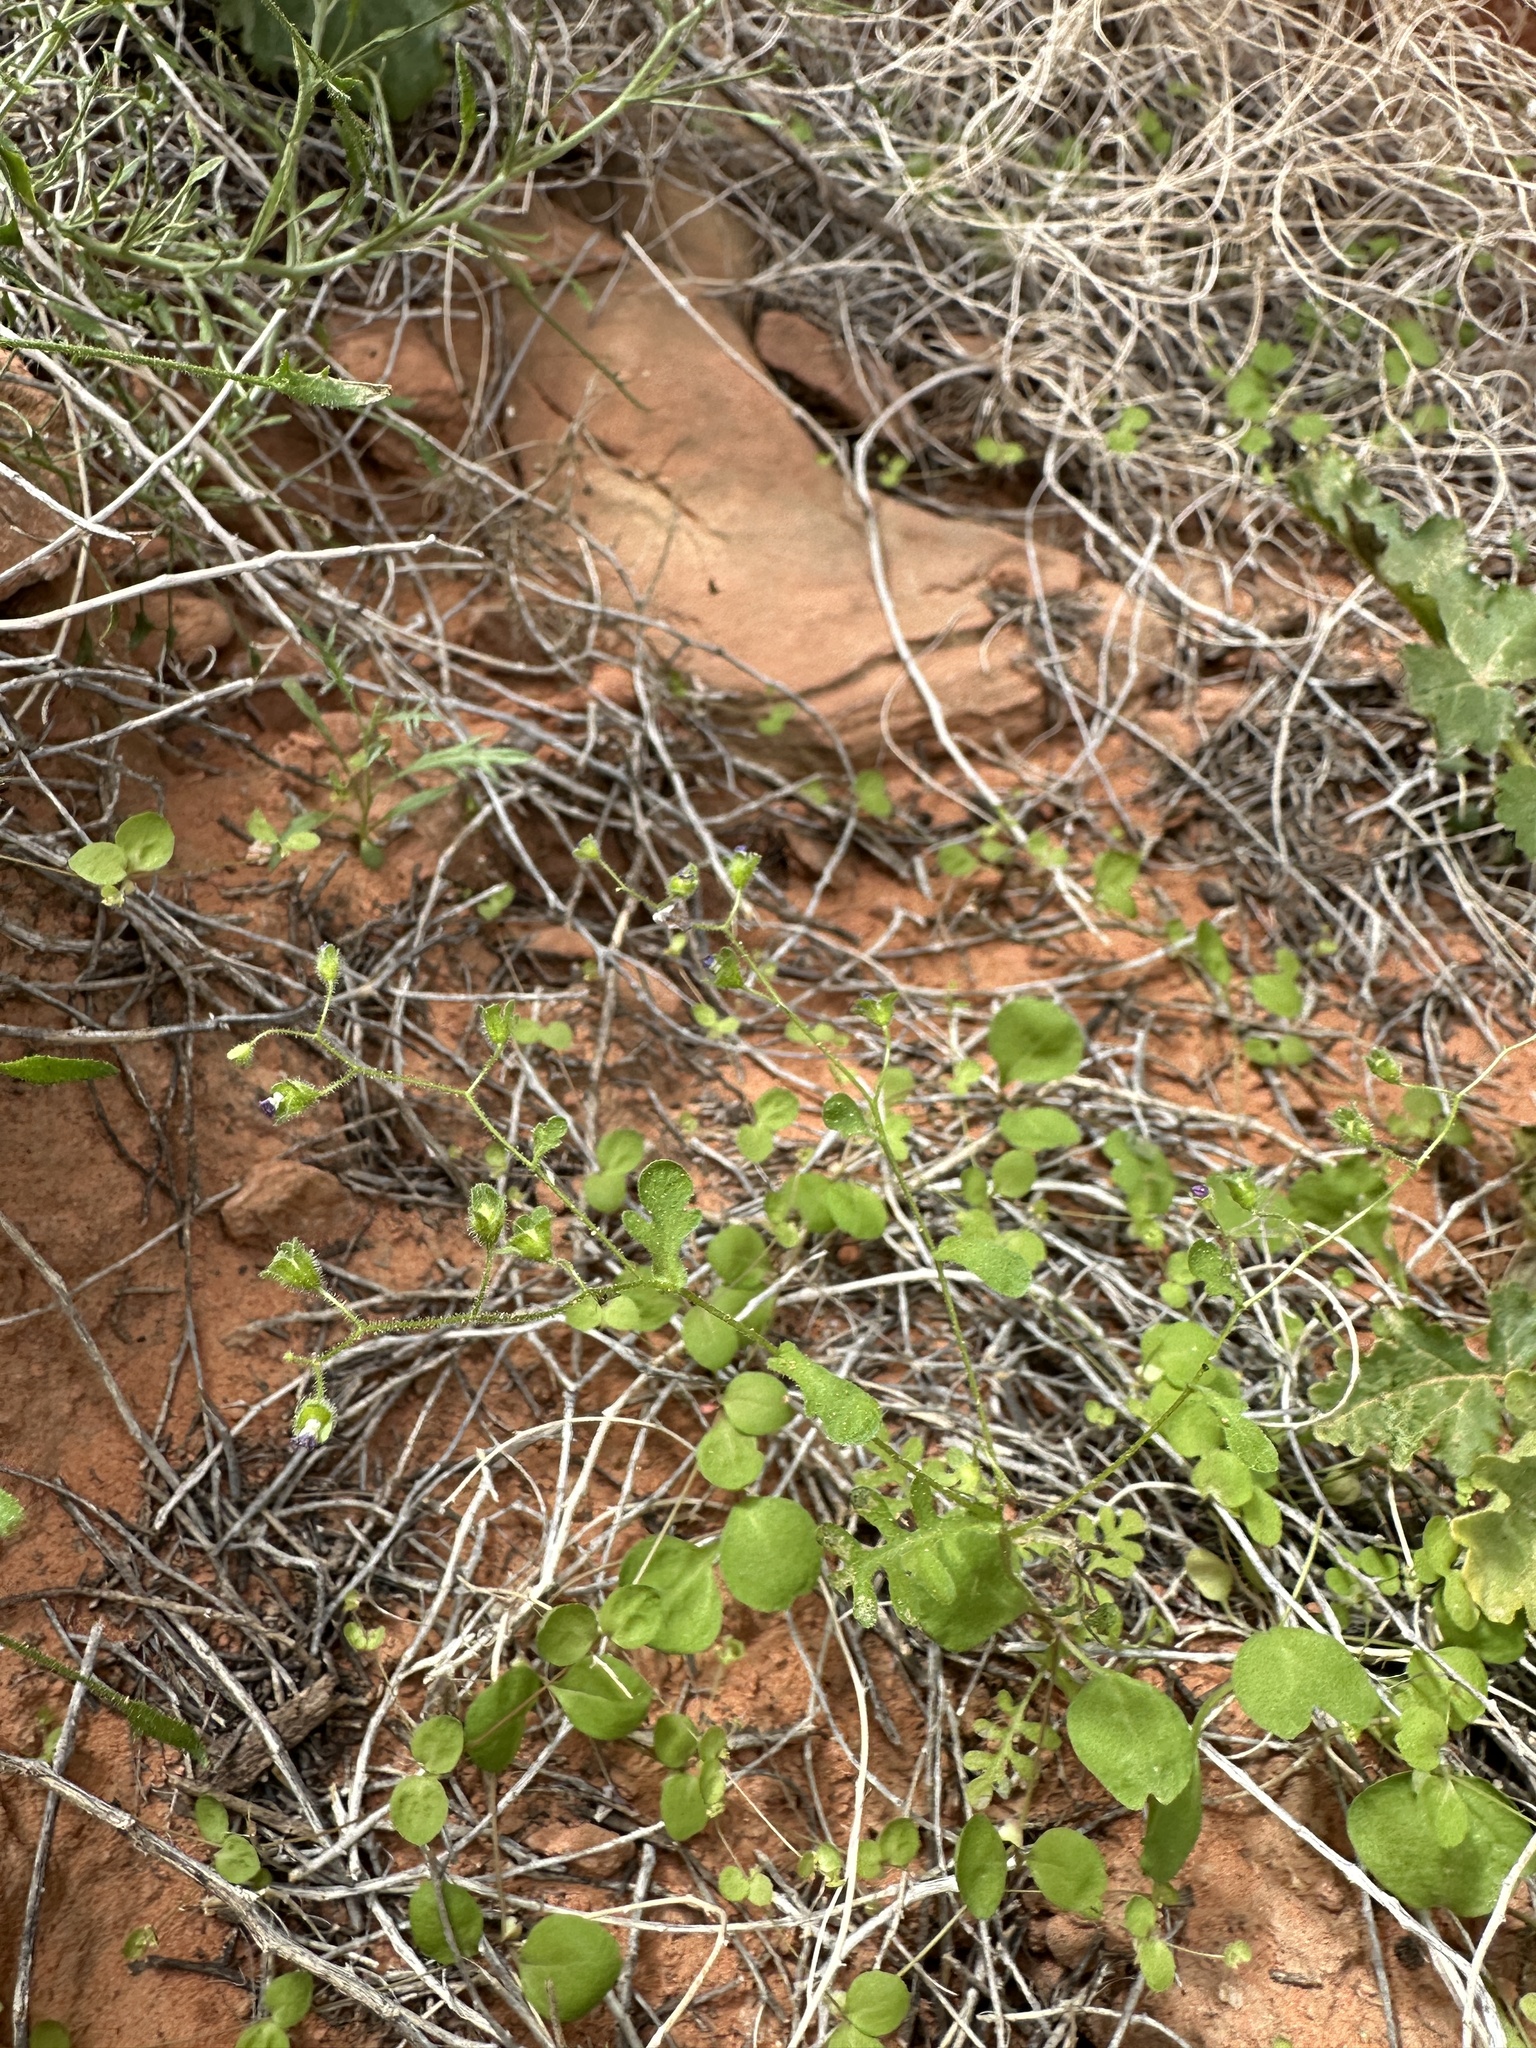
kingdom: Plantae
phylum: Tracheophyta
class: Magnoliopsida
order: Caryophyllales
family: Polygonaceae
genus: Pterostegia
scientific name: Pterostegia drymarioides
